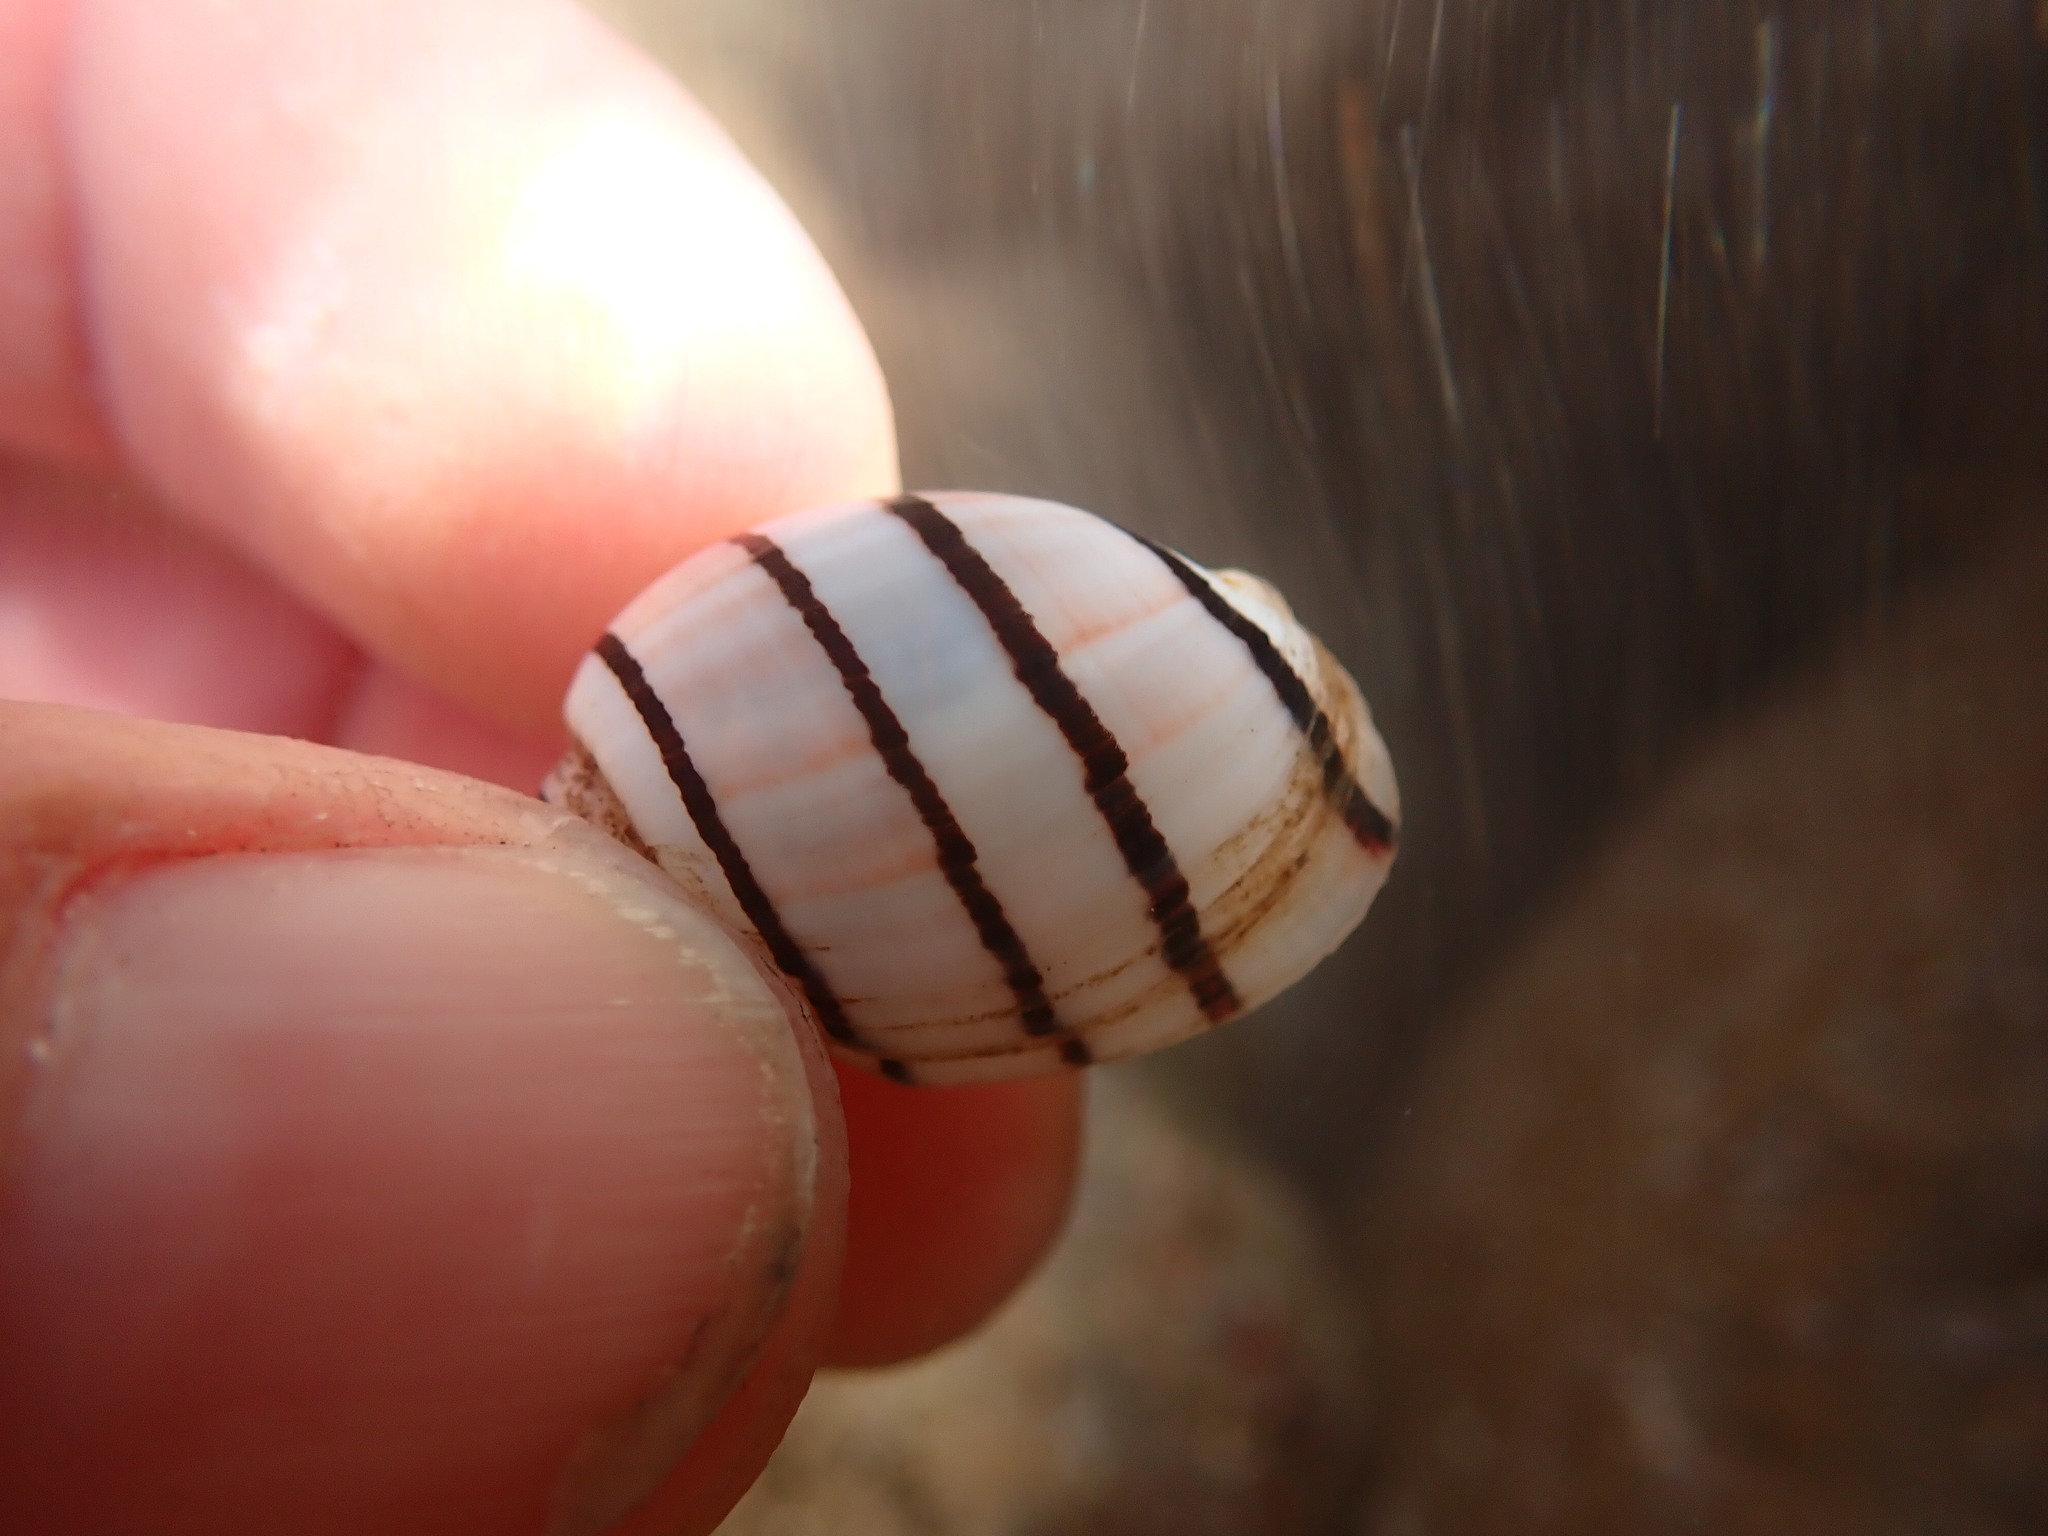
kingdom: Animalia
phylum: Mollusca
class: Gastropoda
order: Cephalaspidea
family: Aplustridae
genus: Aplustrum
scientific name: Aplustrum amplustre
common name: Royal paperbubble
